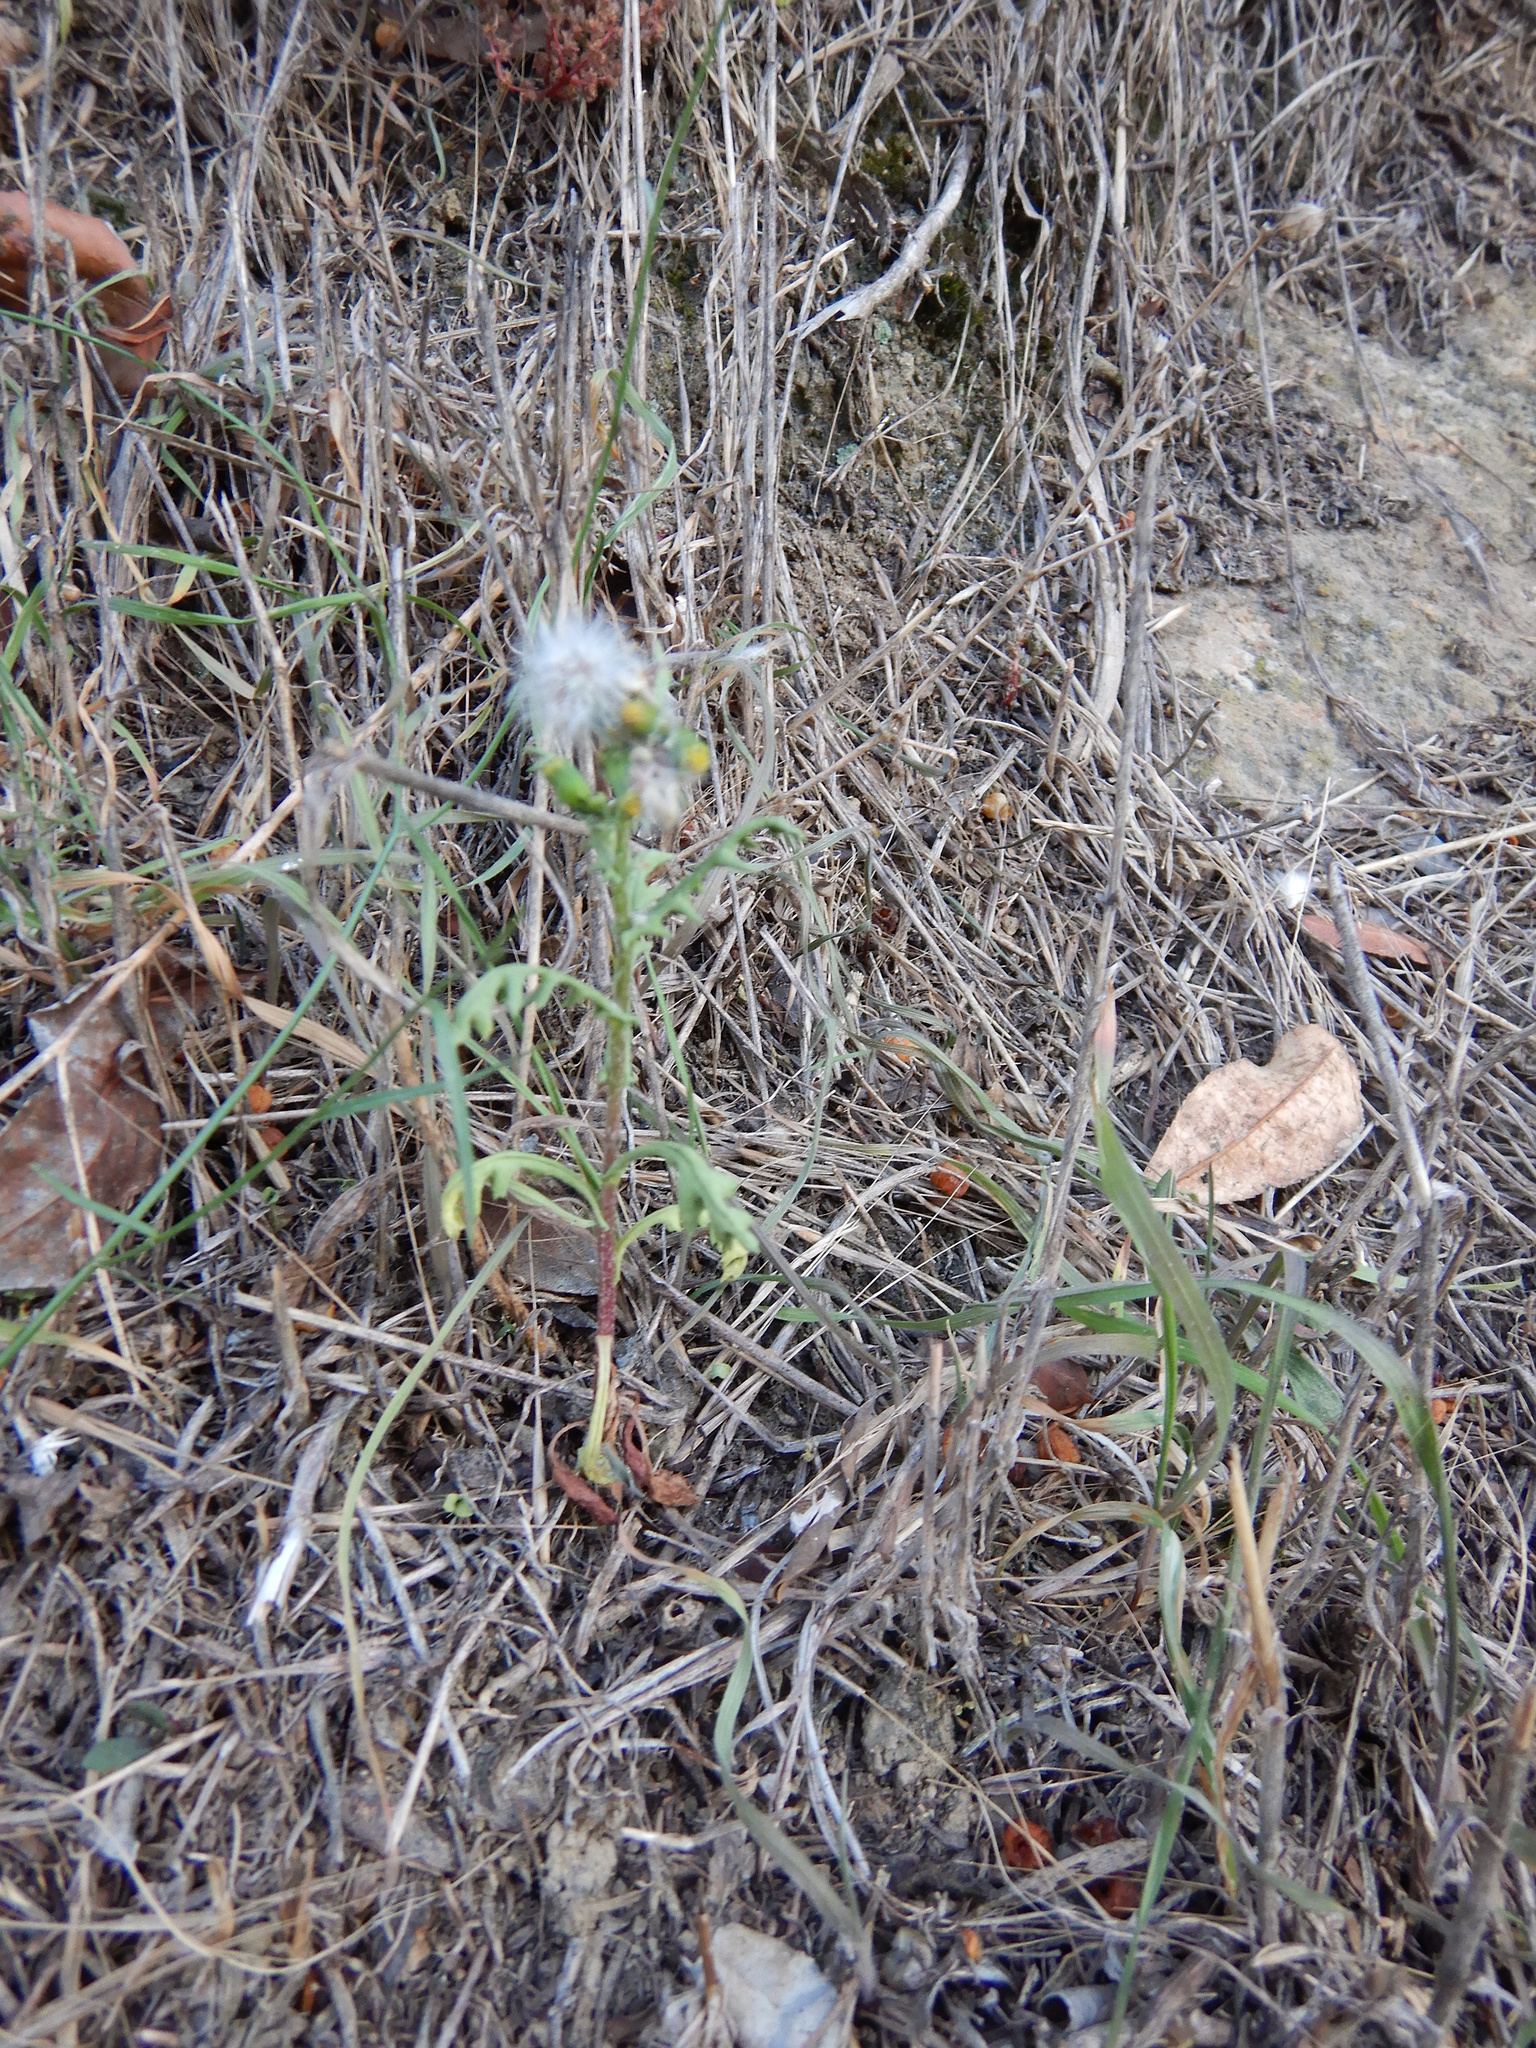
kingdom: Plantae
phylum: Tracheophyta
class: Magnoliopsida
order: Asterales
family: Asteraceae
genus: Senecio
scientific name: Senecio vulgaris
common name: Old-man-in-the-spring
